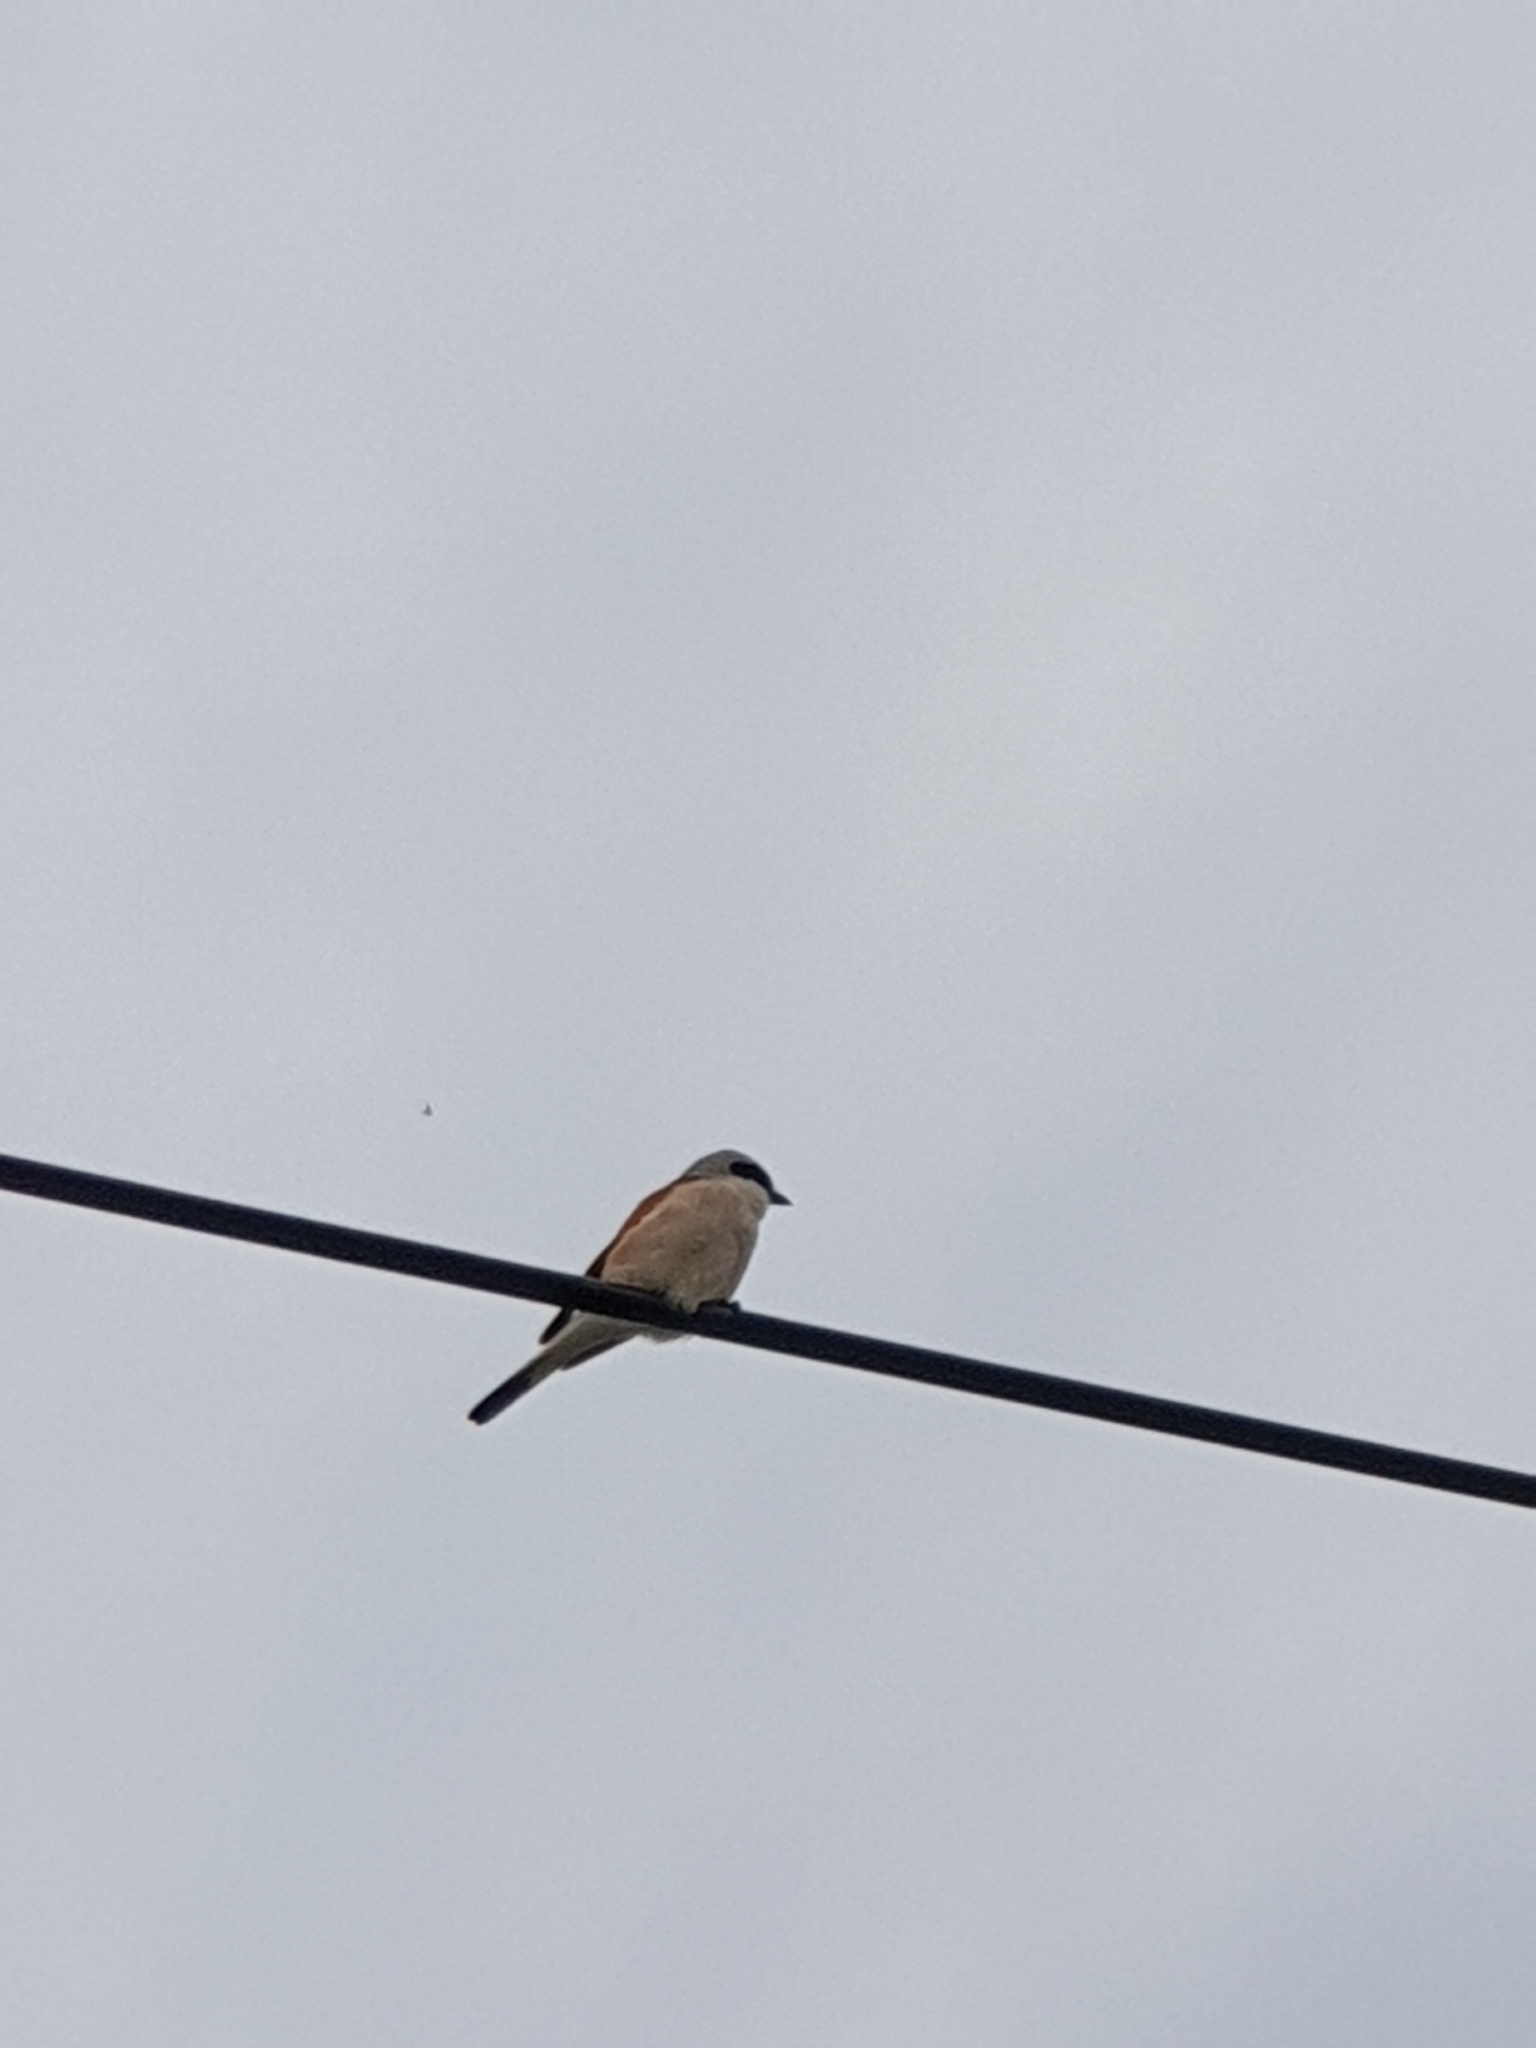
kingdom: Animalia
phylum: Chordata
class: Aves
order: Passeriformes
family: Laniidae
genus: Lanius
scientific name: Lanius collurio
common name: Red-backed shrike
